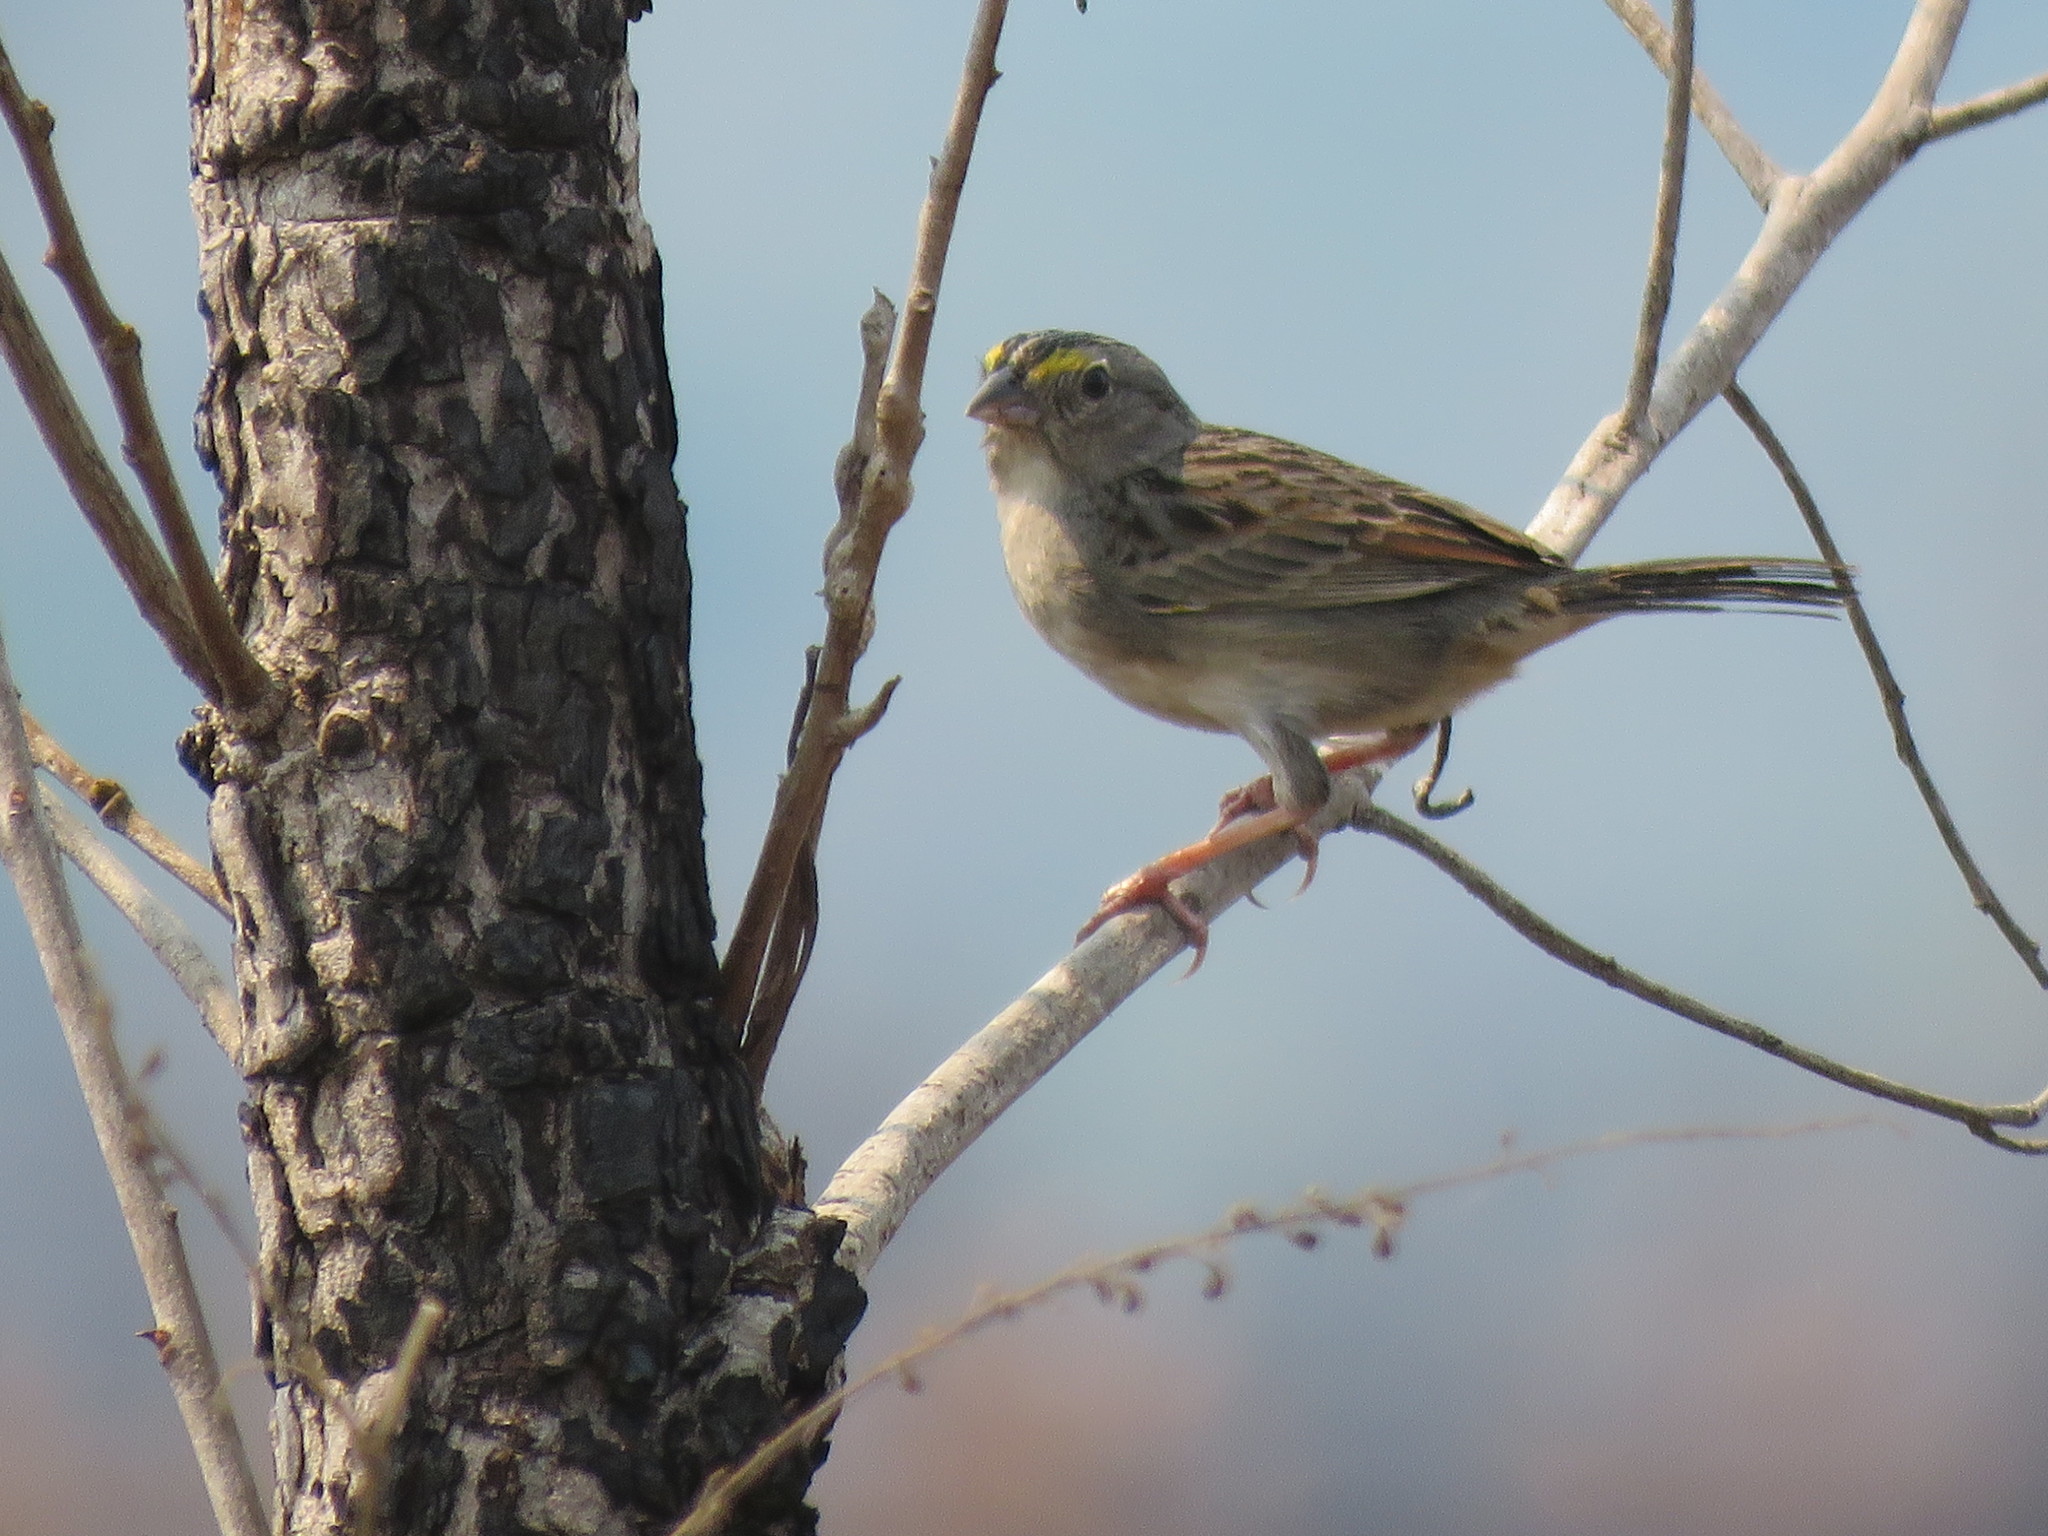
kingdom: Animalia
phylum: Chordata
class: Aves
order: Passeriformes
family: Passerellidae
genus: Ammodramus
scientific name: Ammodramus aurifrons
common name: Yellow-browed sparrow
